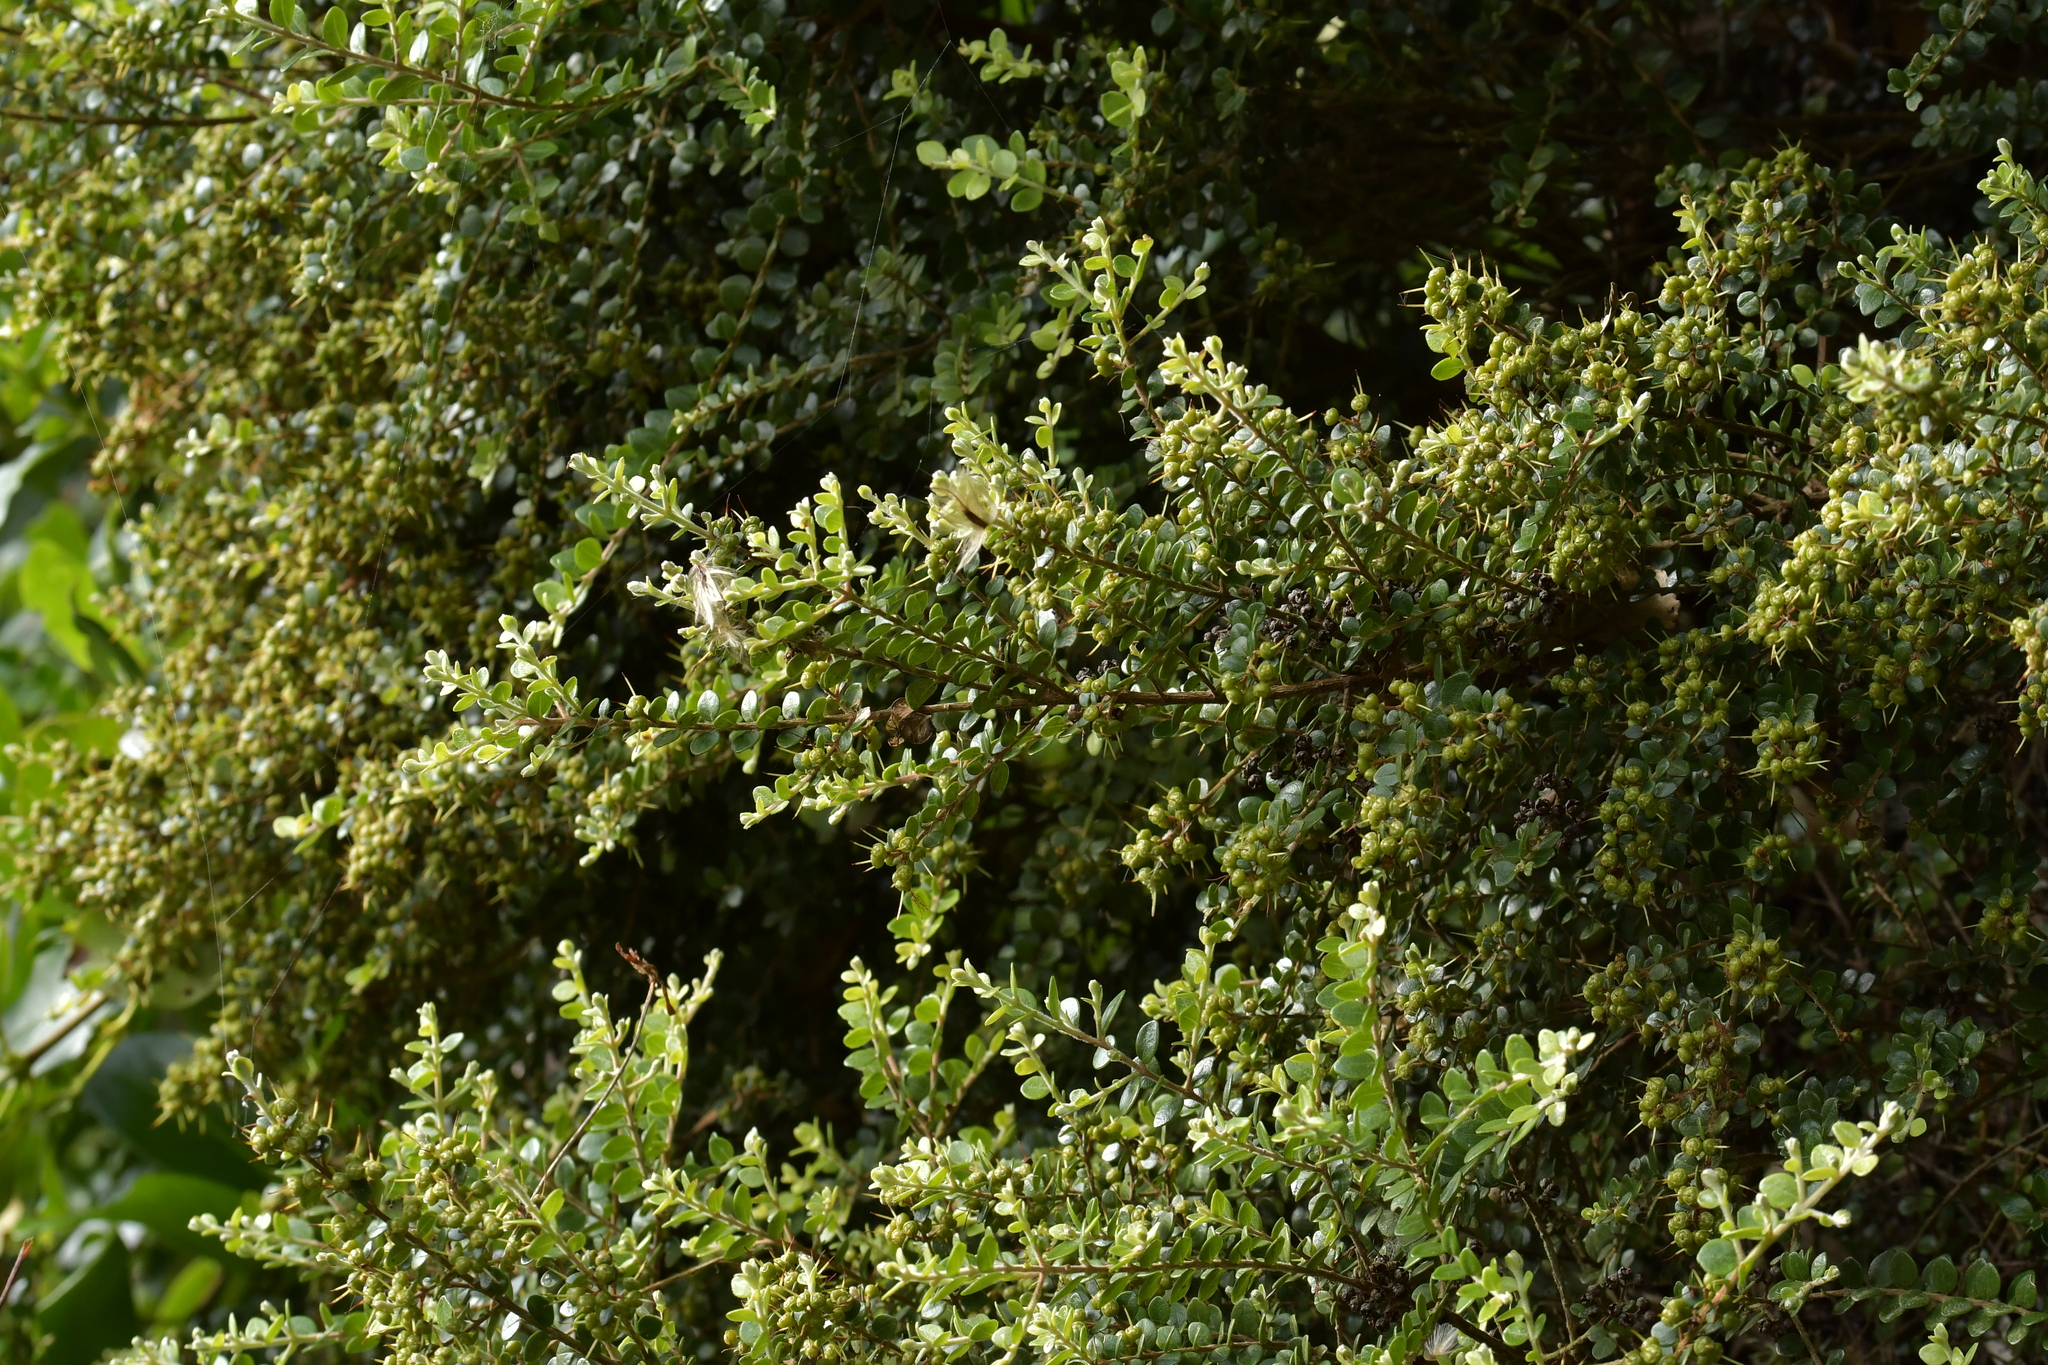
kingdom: Plantae
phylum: Tracheophyta
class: Magnoliopsida
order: Myrtales
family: Myrtaceae
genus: Metrosideros
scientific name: Metrosideros perforata
